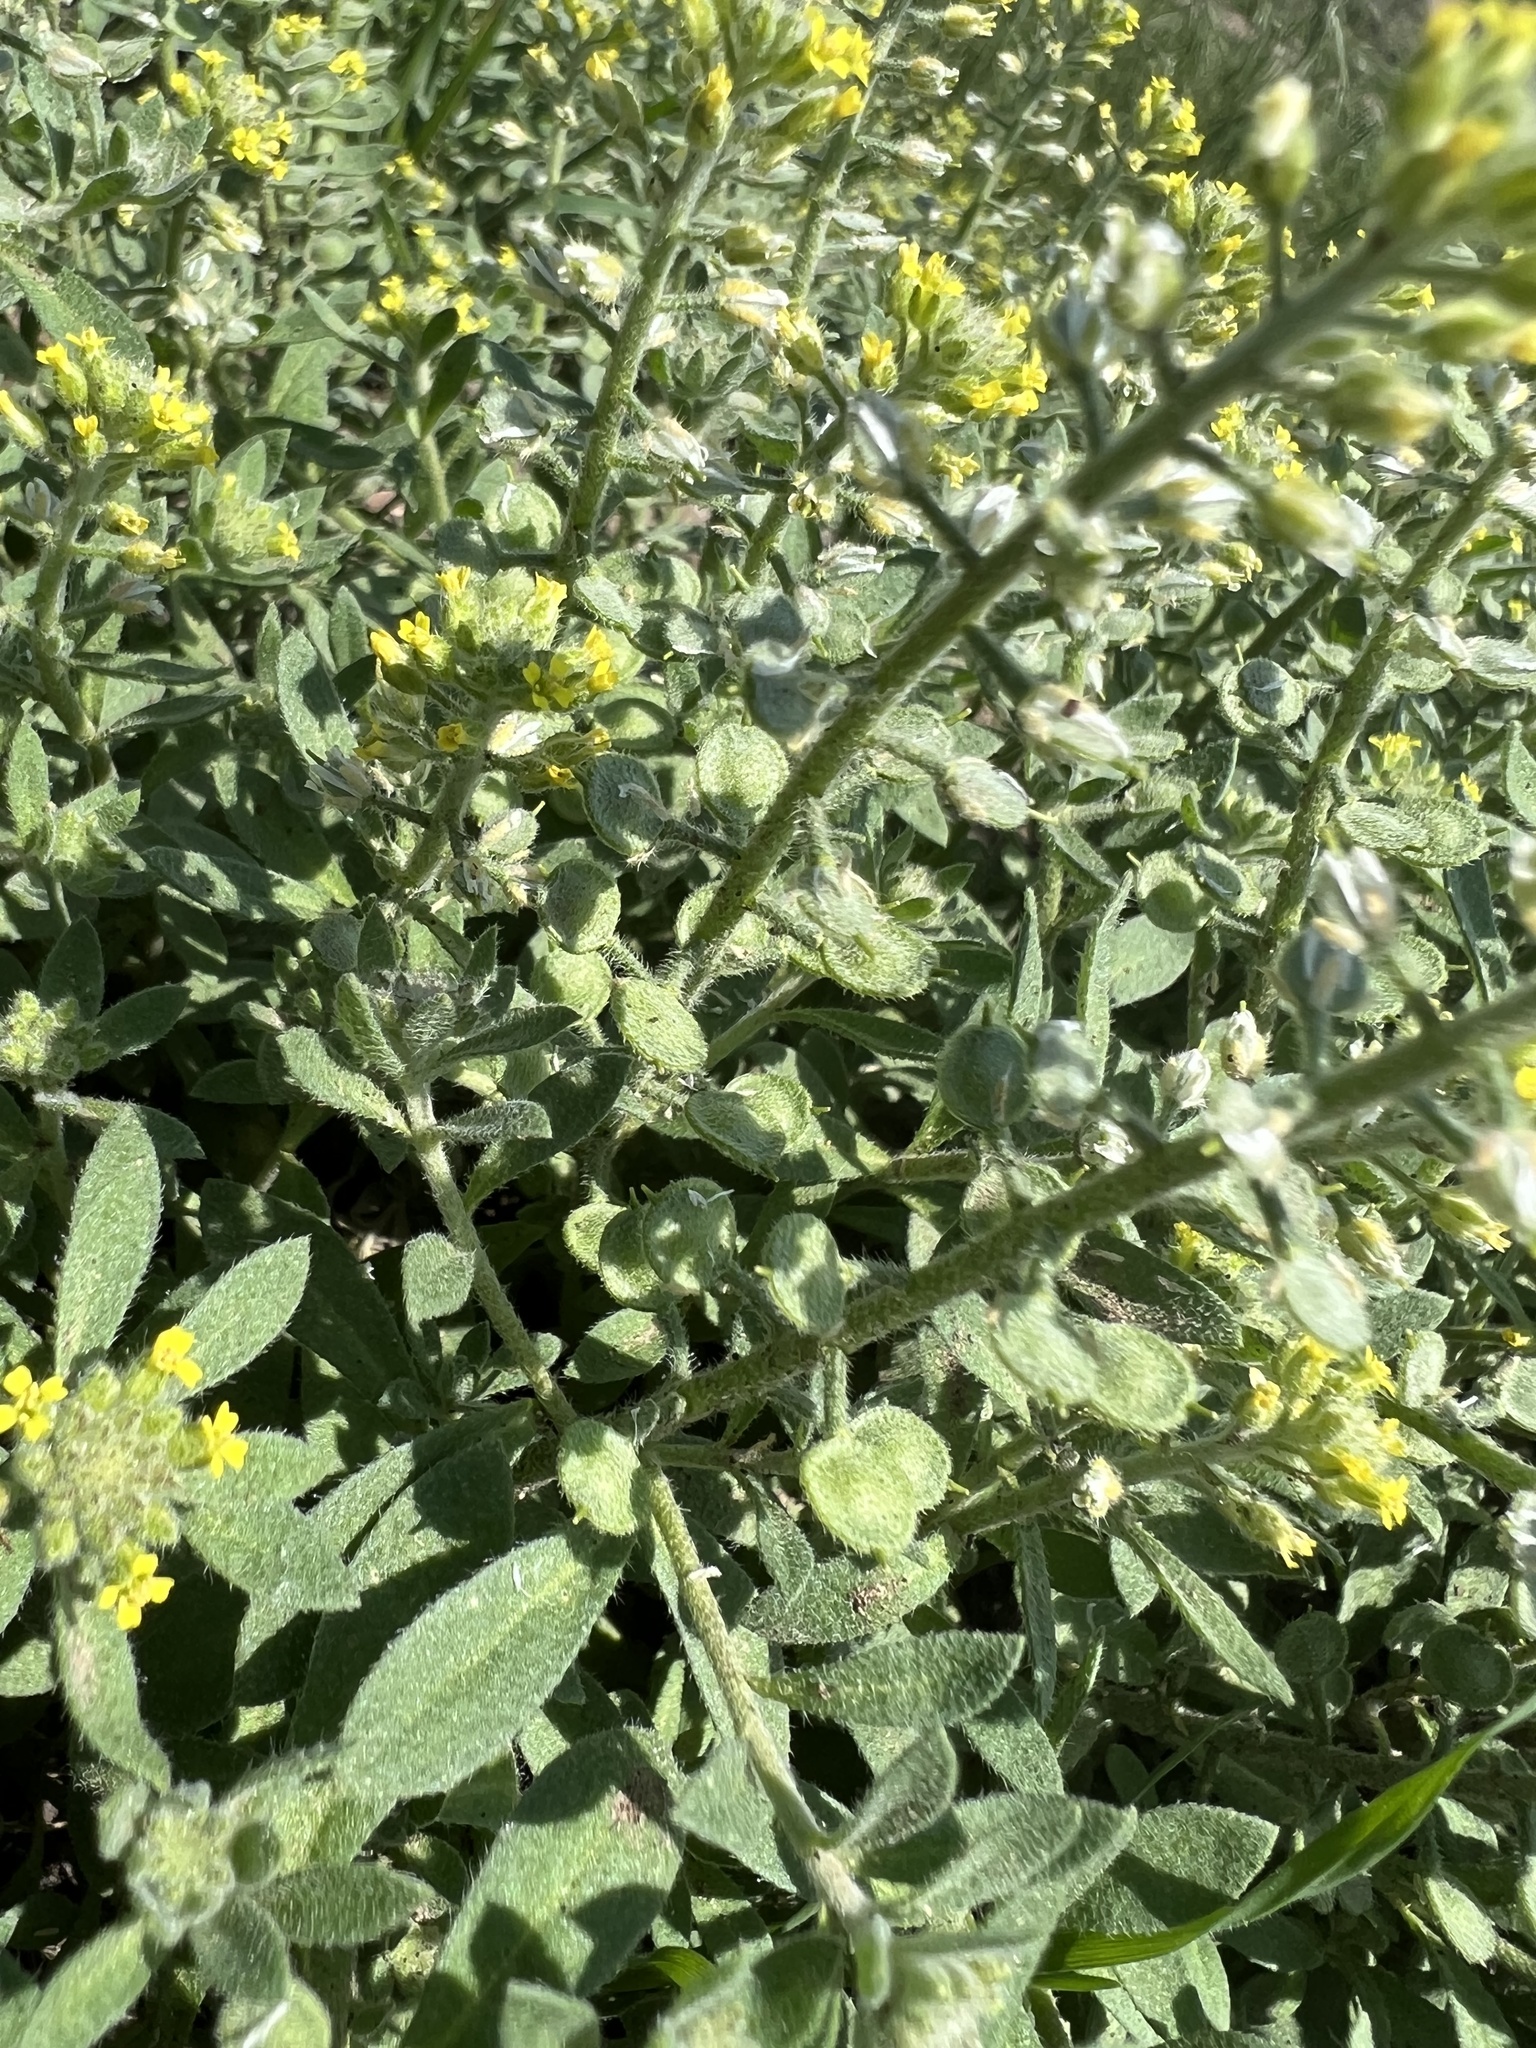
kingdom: Plantae
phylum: Tracheophyta
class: Magnoliopsida
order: Brassicales
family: Brassicaceae
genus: Alyssum
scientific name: Alyssum simplex
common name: Alyssum
